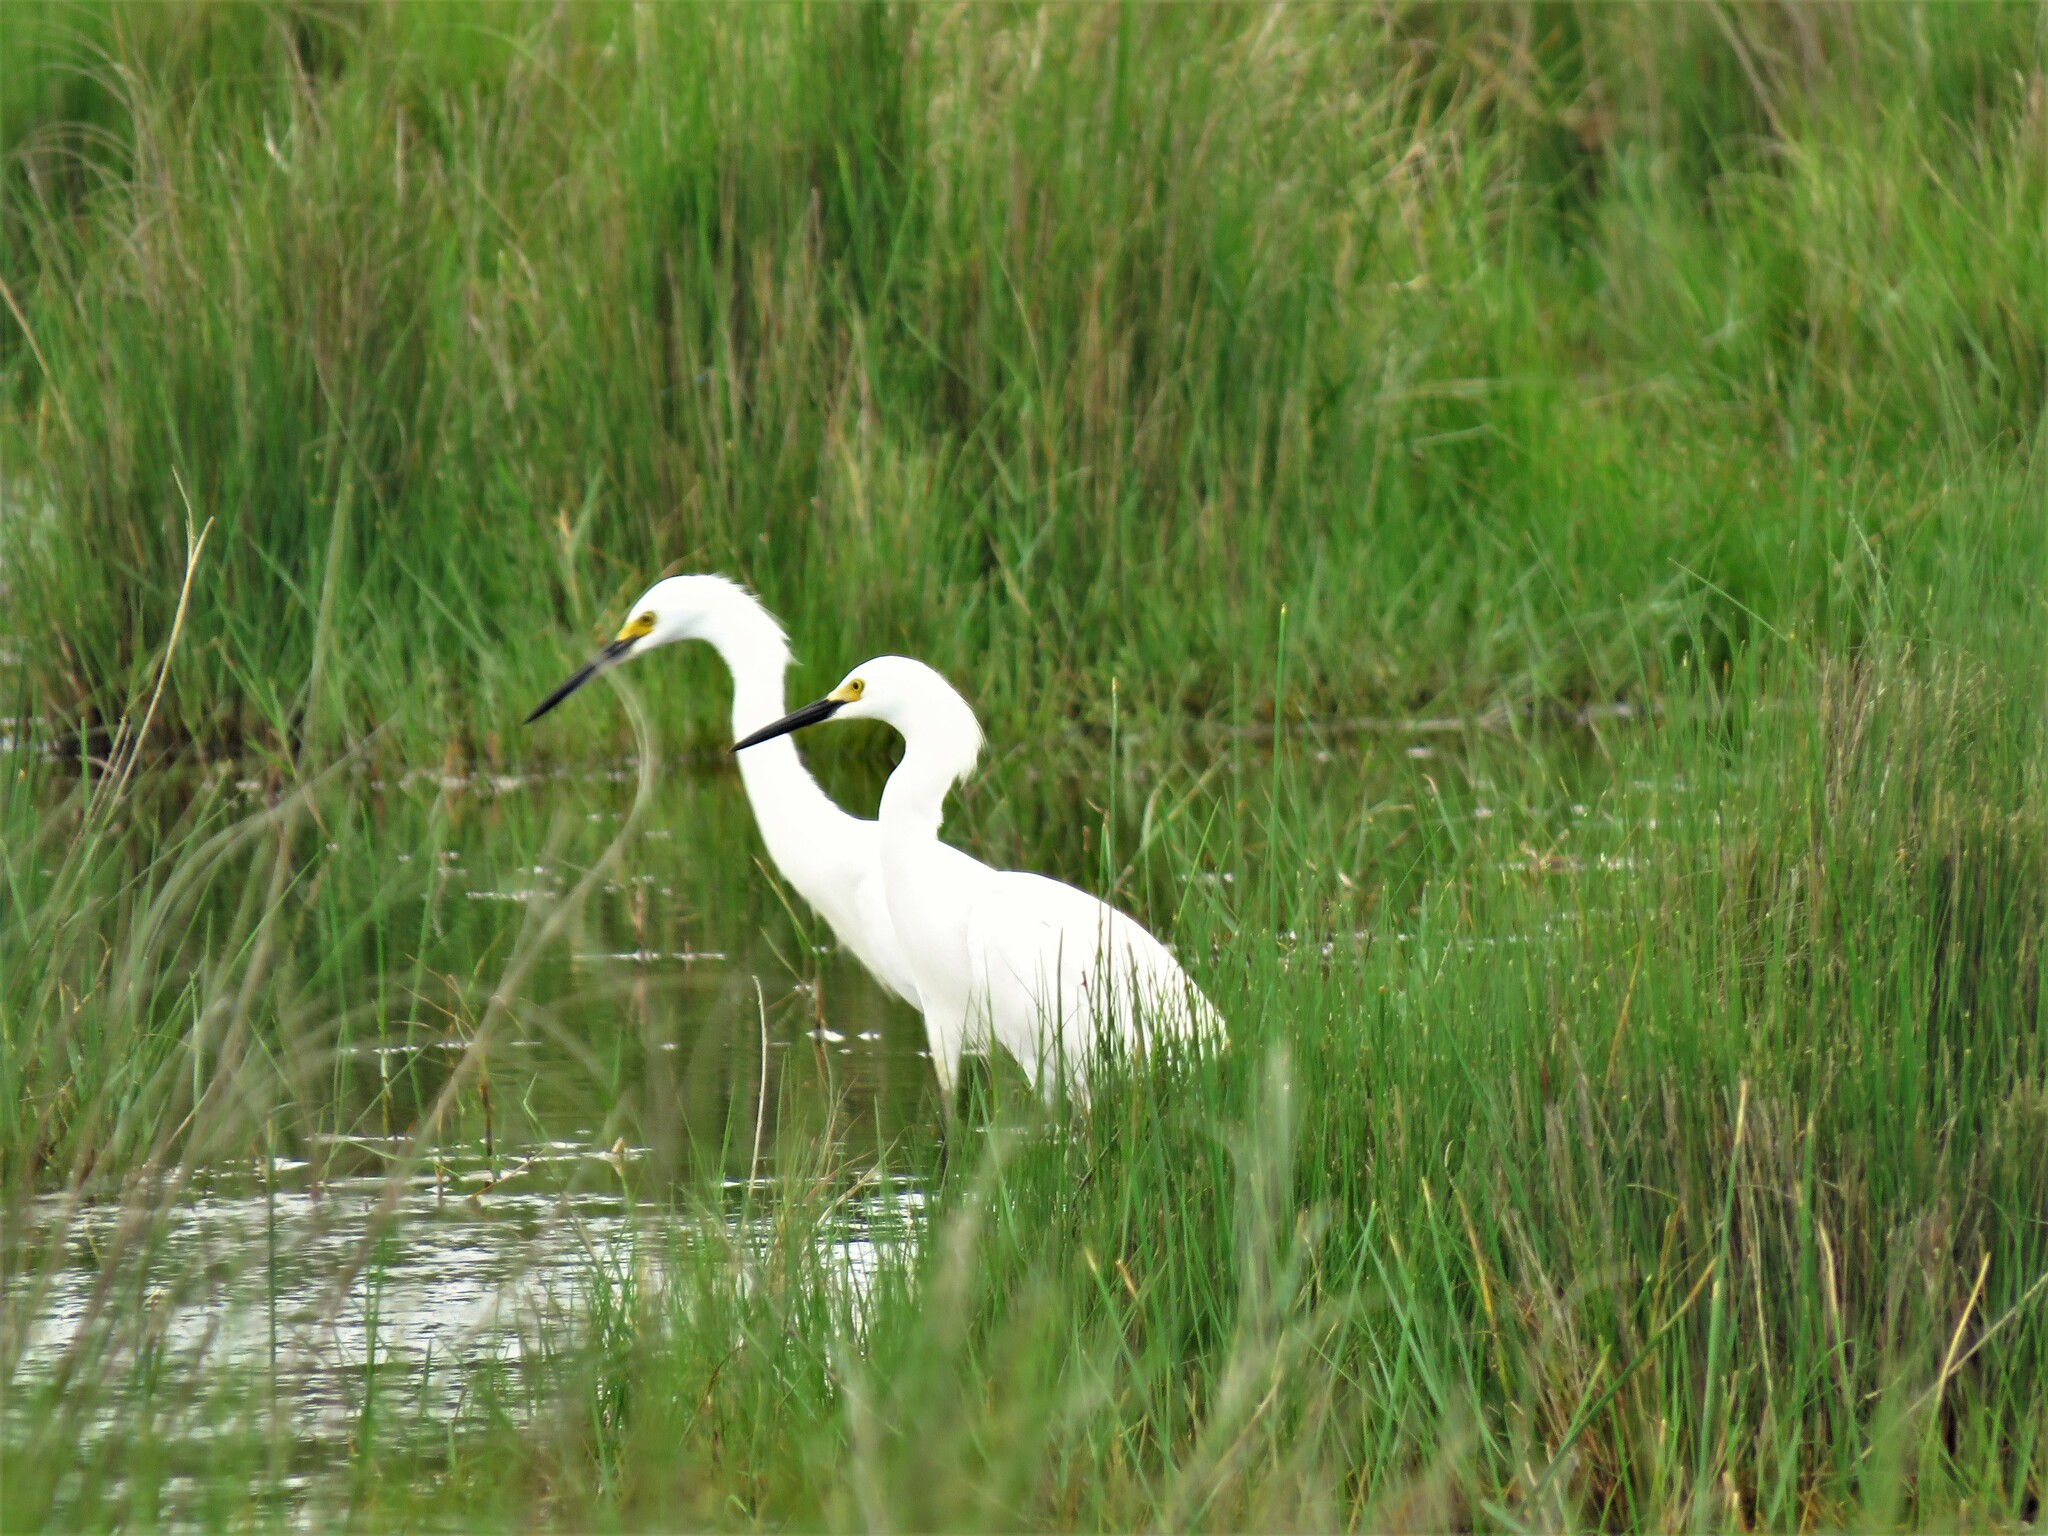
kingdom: Animalia
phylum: Chordata
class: Aves
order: Pelecaniformes
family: Ardeidae
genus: Egretta
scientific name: Egretta thula
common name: Snowy egret
